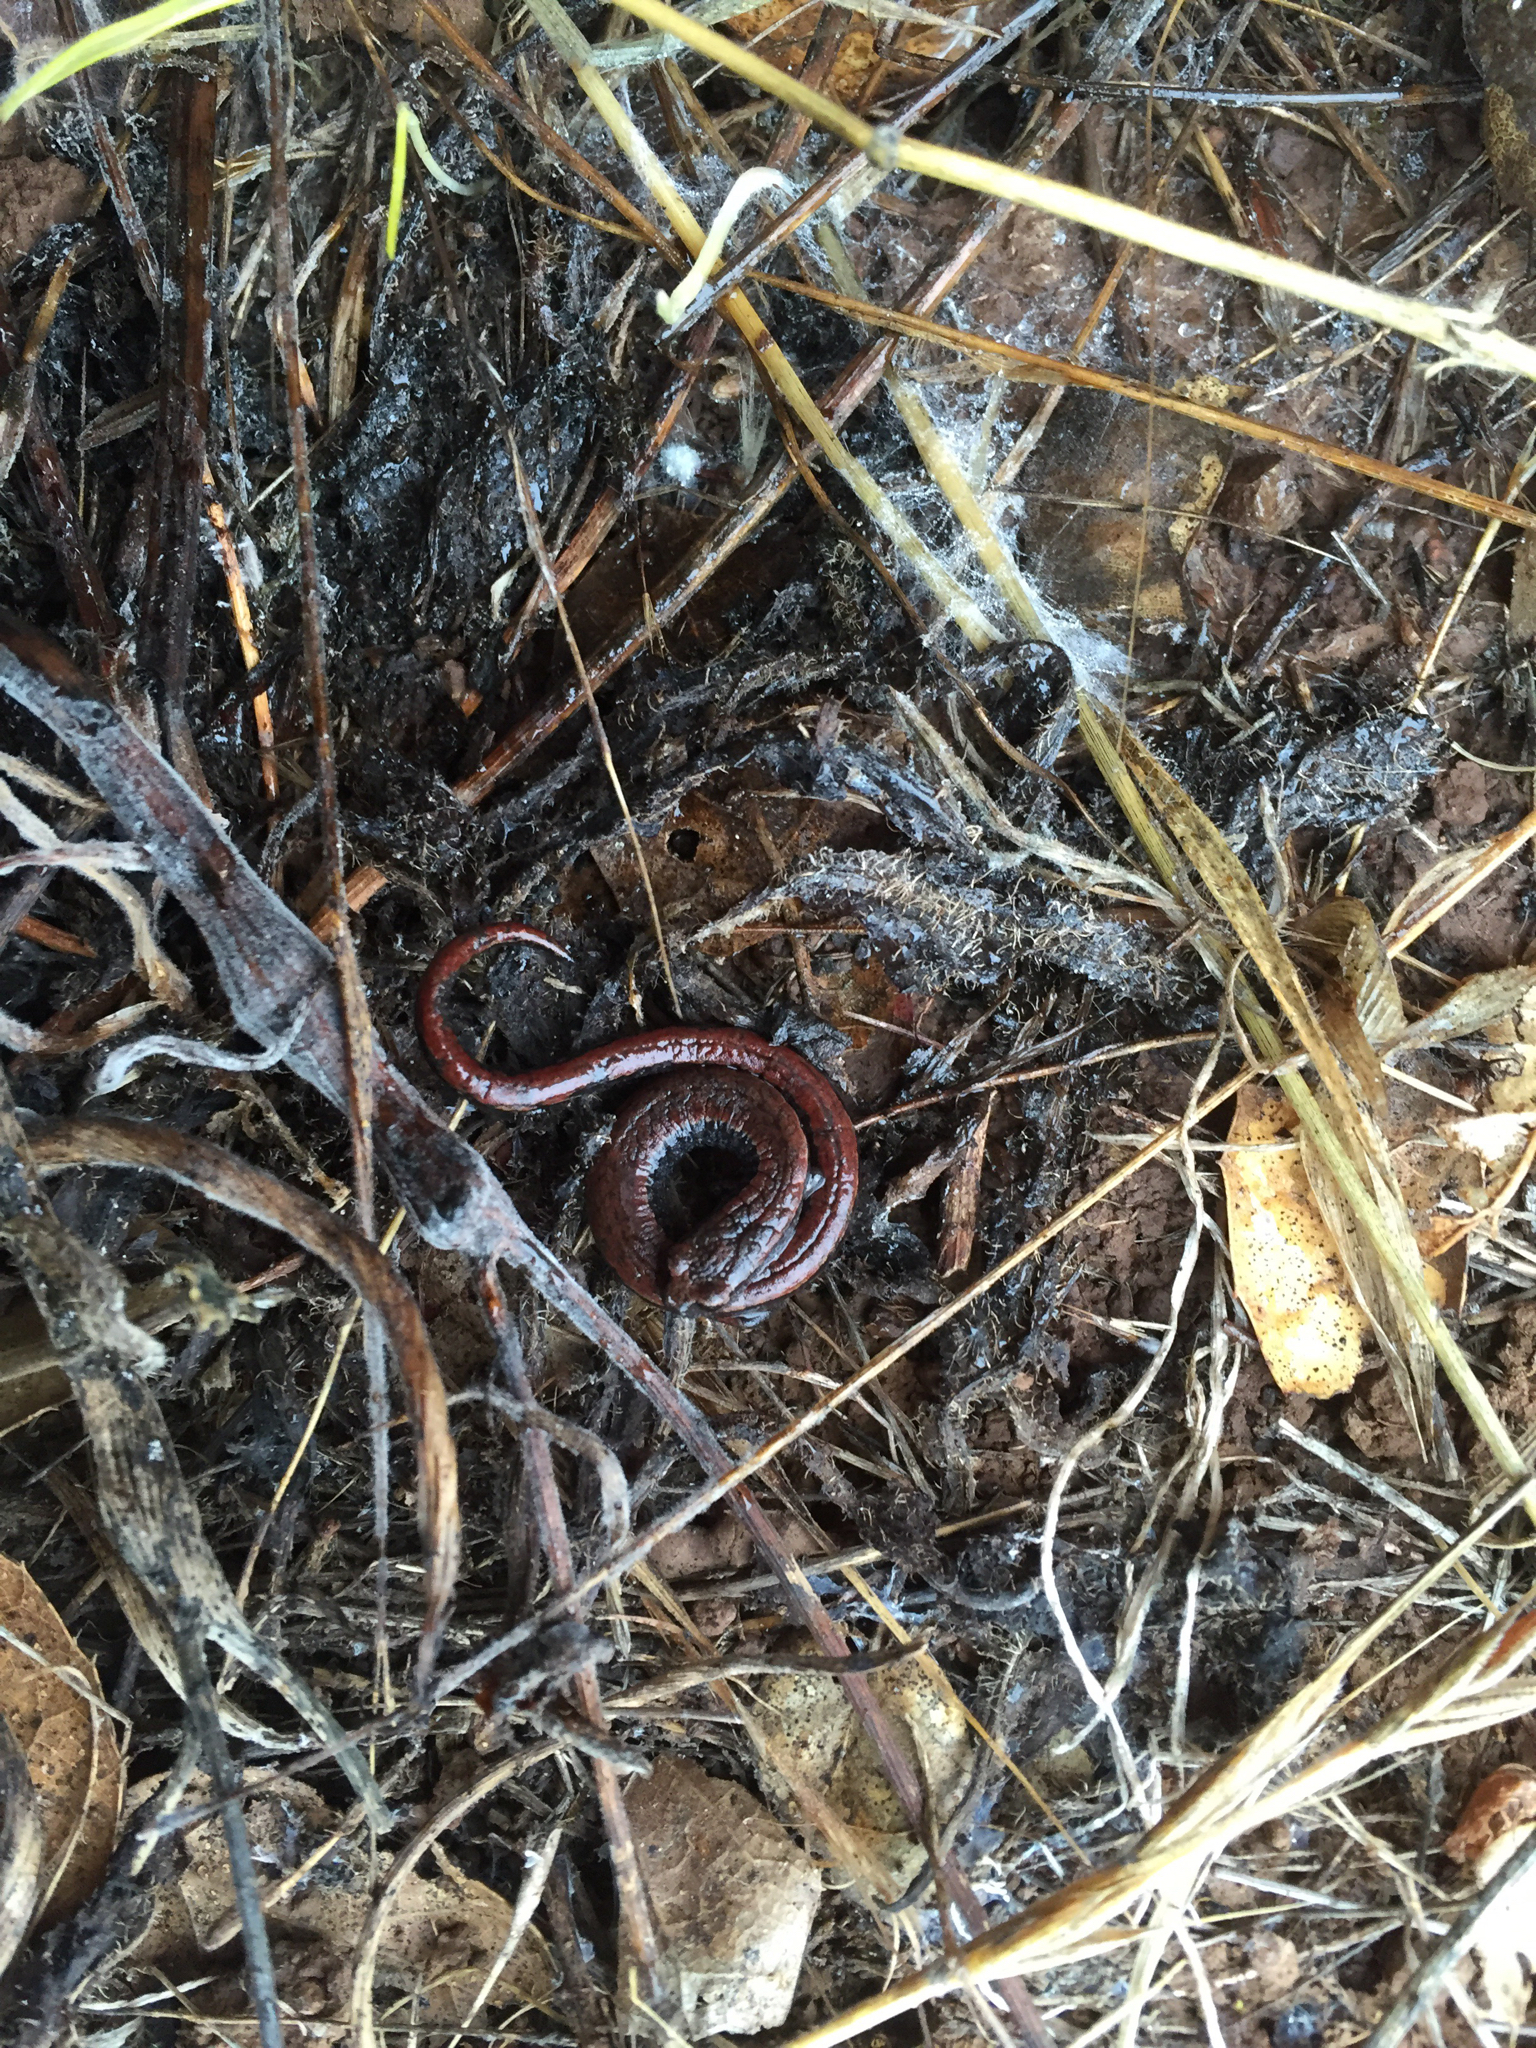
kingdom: Animalia
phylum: Chordata
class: Amphibia
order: Caudata
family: Plethodontidae
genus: Batrachoseps
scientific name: Batrachoseps attenuatus
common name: California slender salamander
